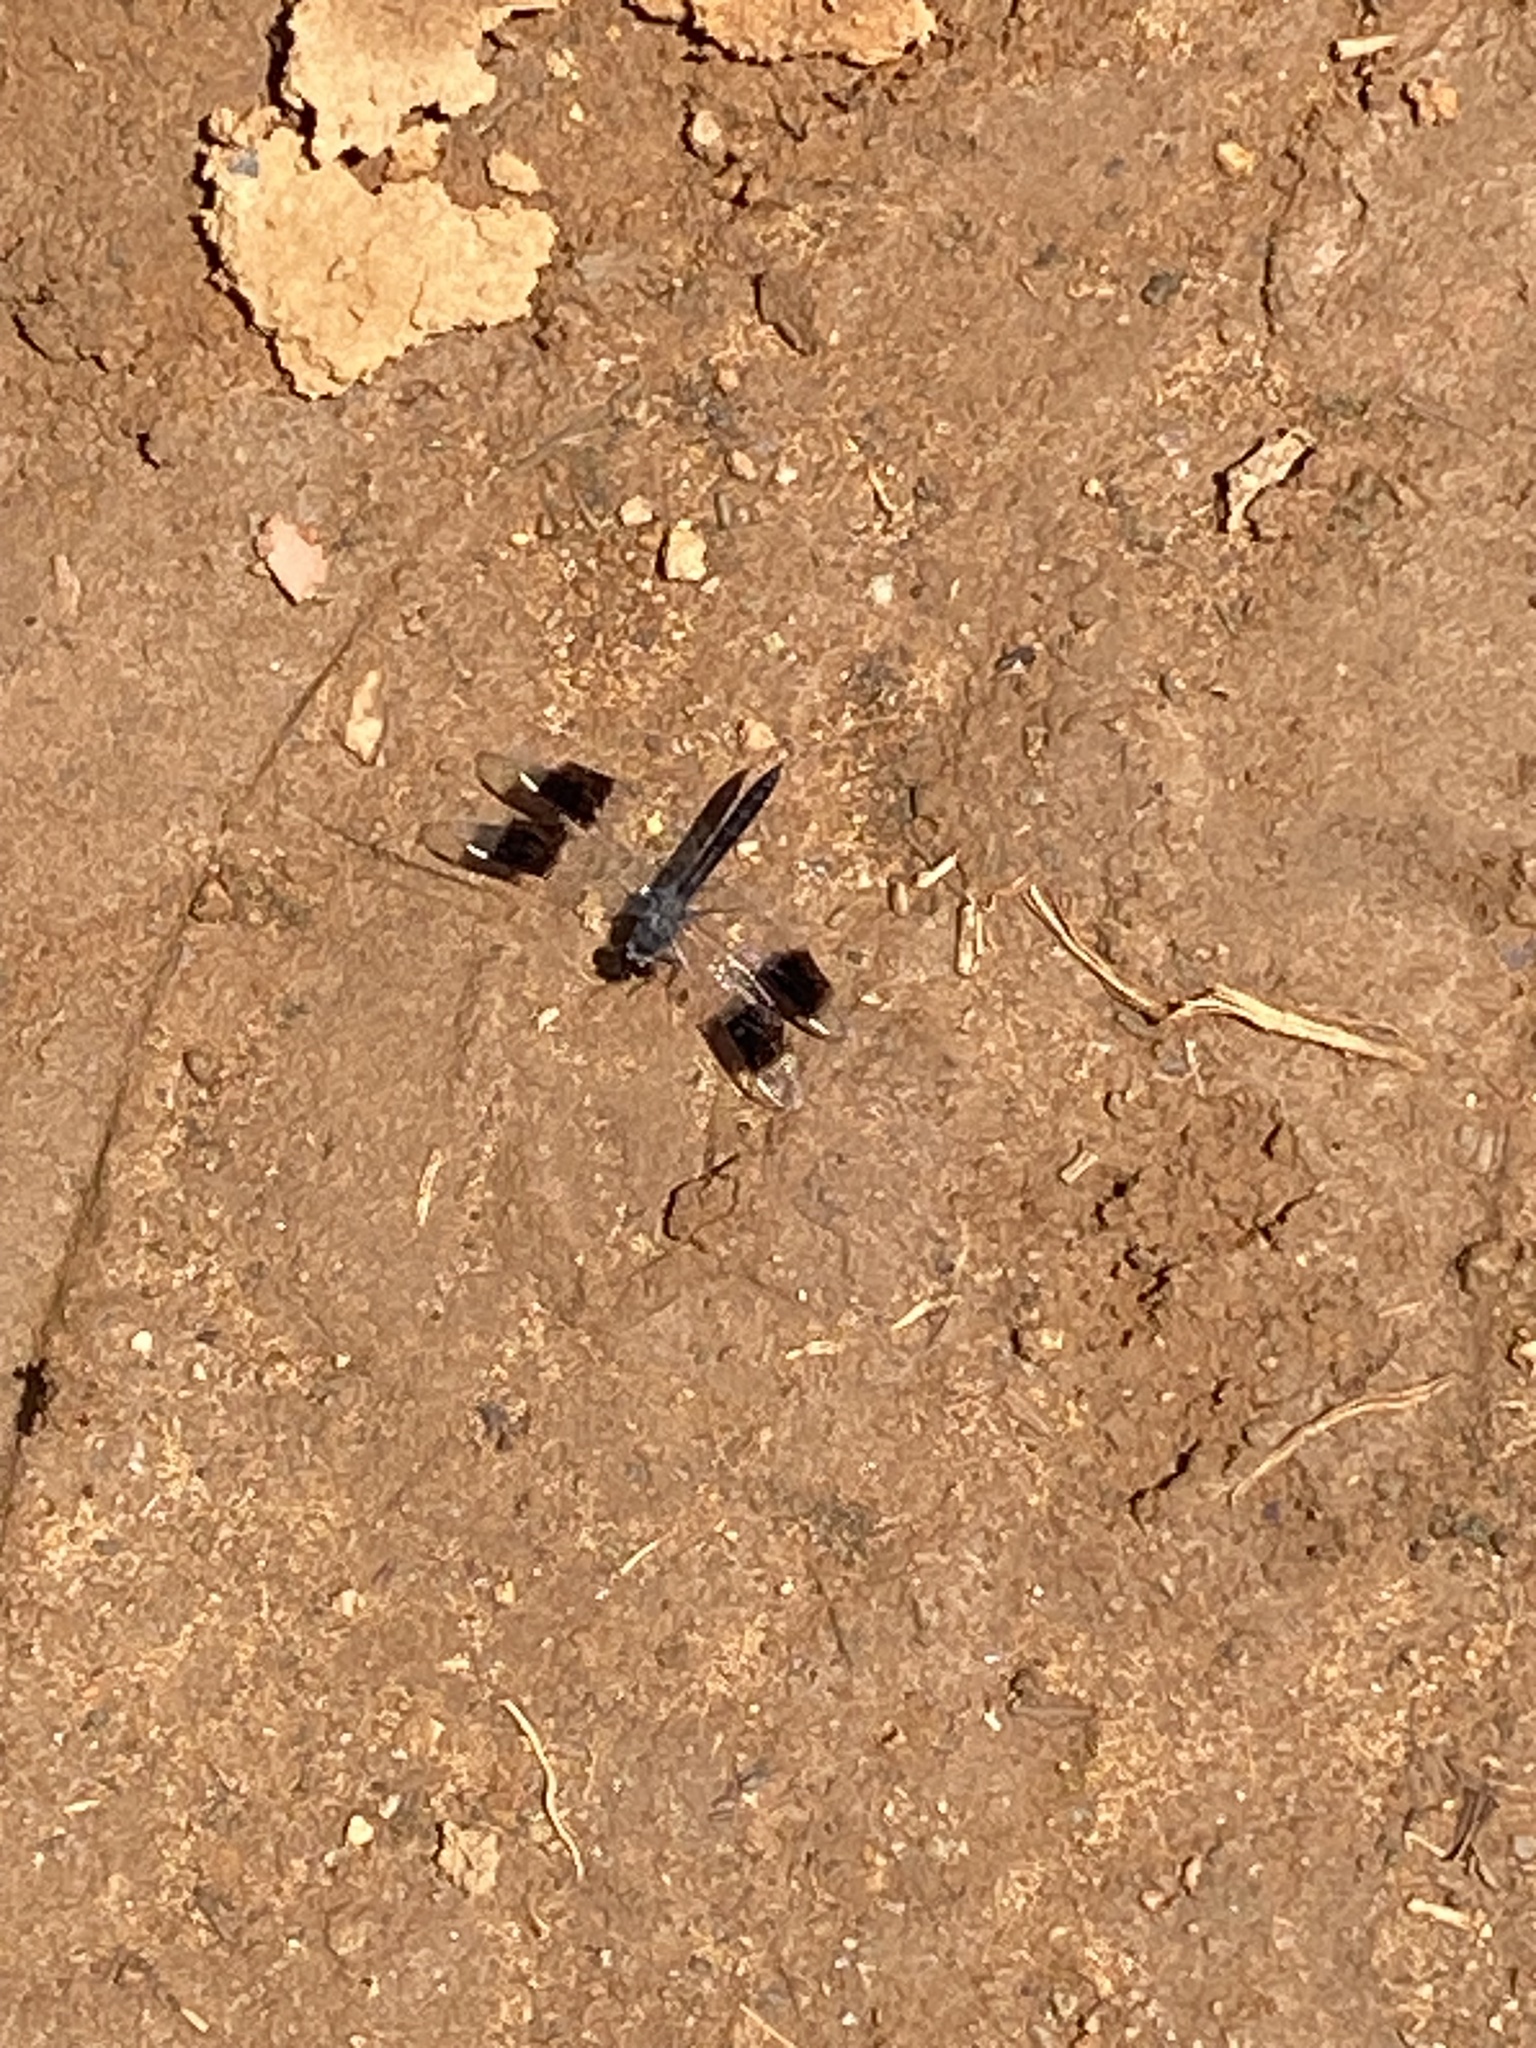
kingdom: Animalia
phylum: Arthropoda
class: Insecta
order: Odonata
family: Libellulidae
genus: Brachythemis
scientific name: Brachythemis leucosticta
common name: Banded groundling
